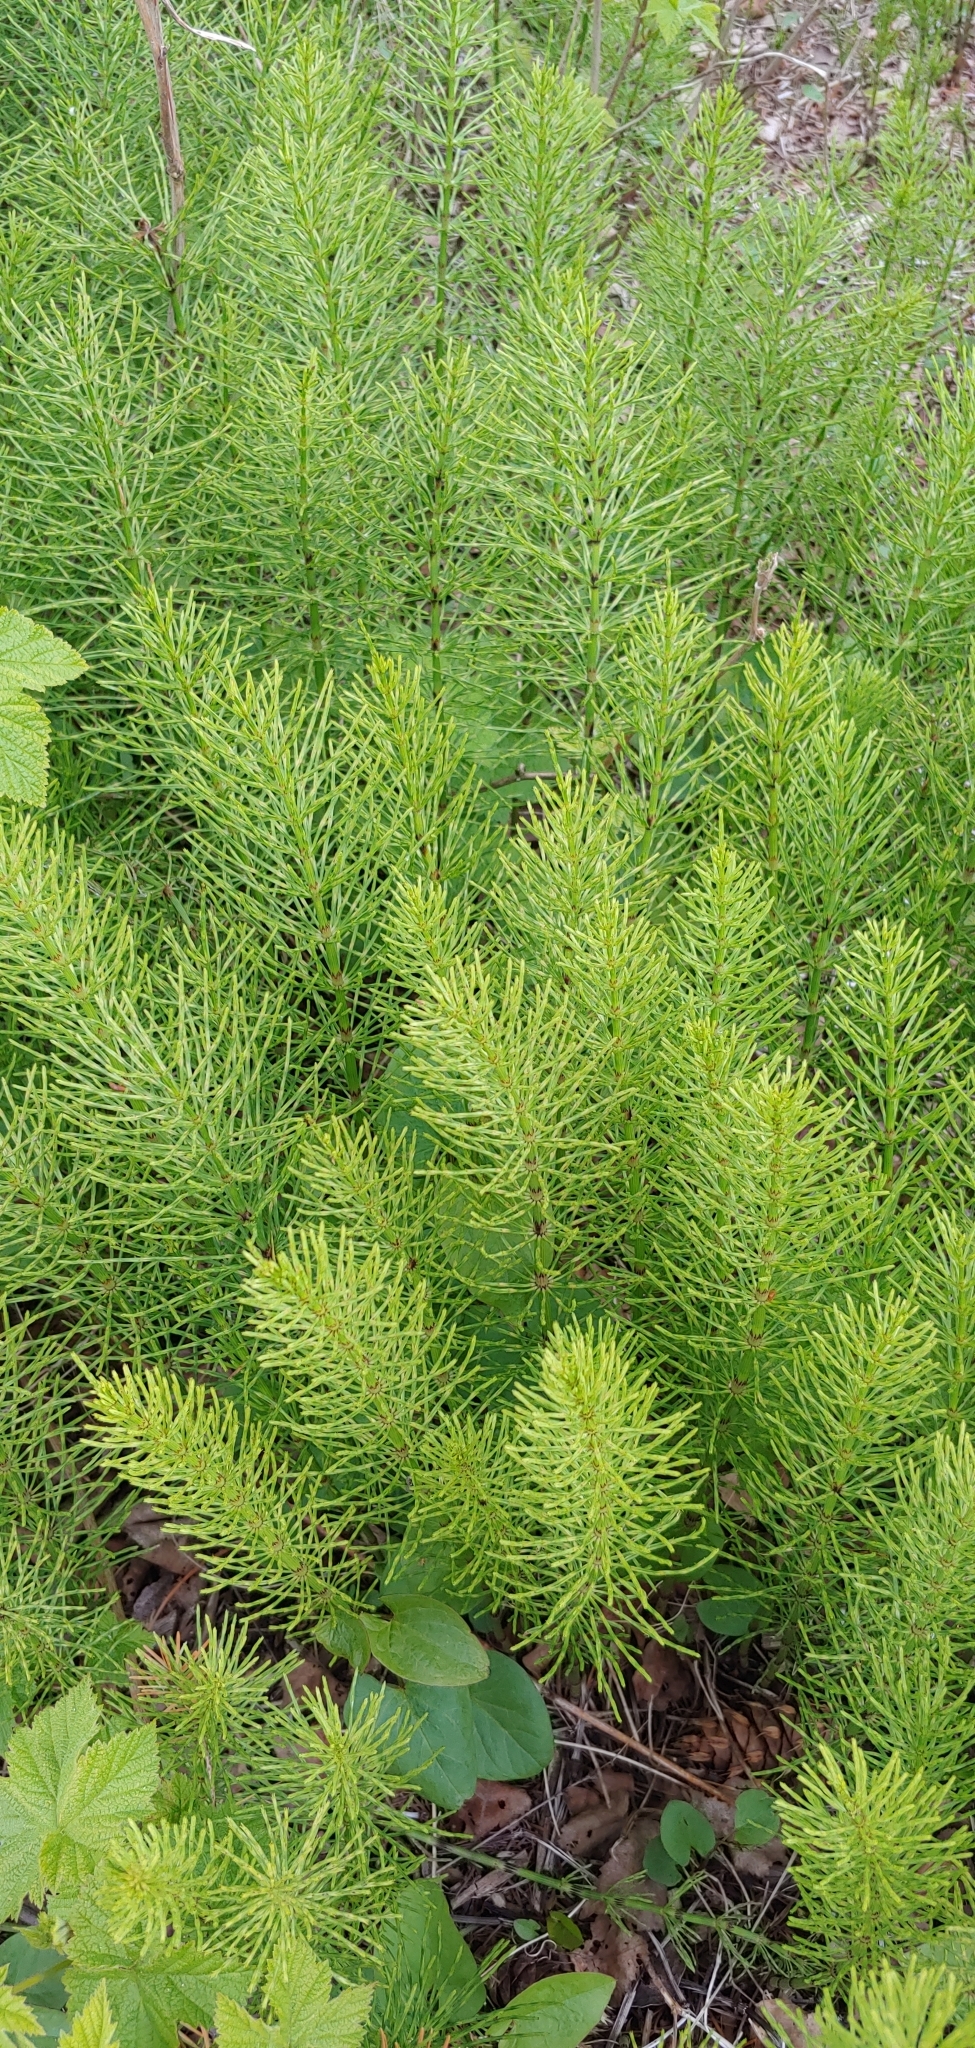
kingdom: Plantae
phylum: Tracheophyta
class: Polypodiopsida
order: Equisetales
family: Equisetaceae
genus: Equisetum
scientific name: Equisetum arvense
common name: Field horsetail
